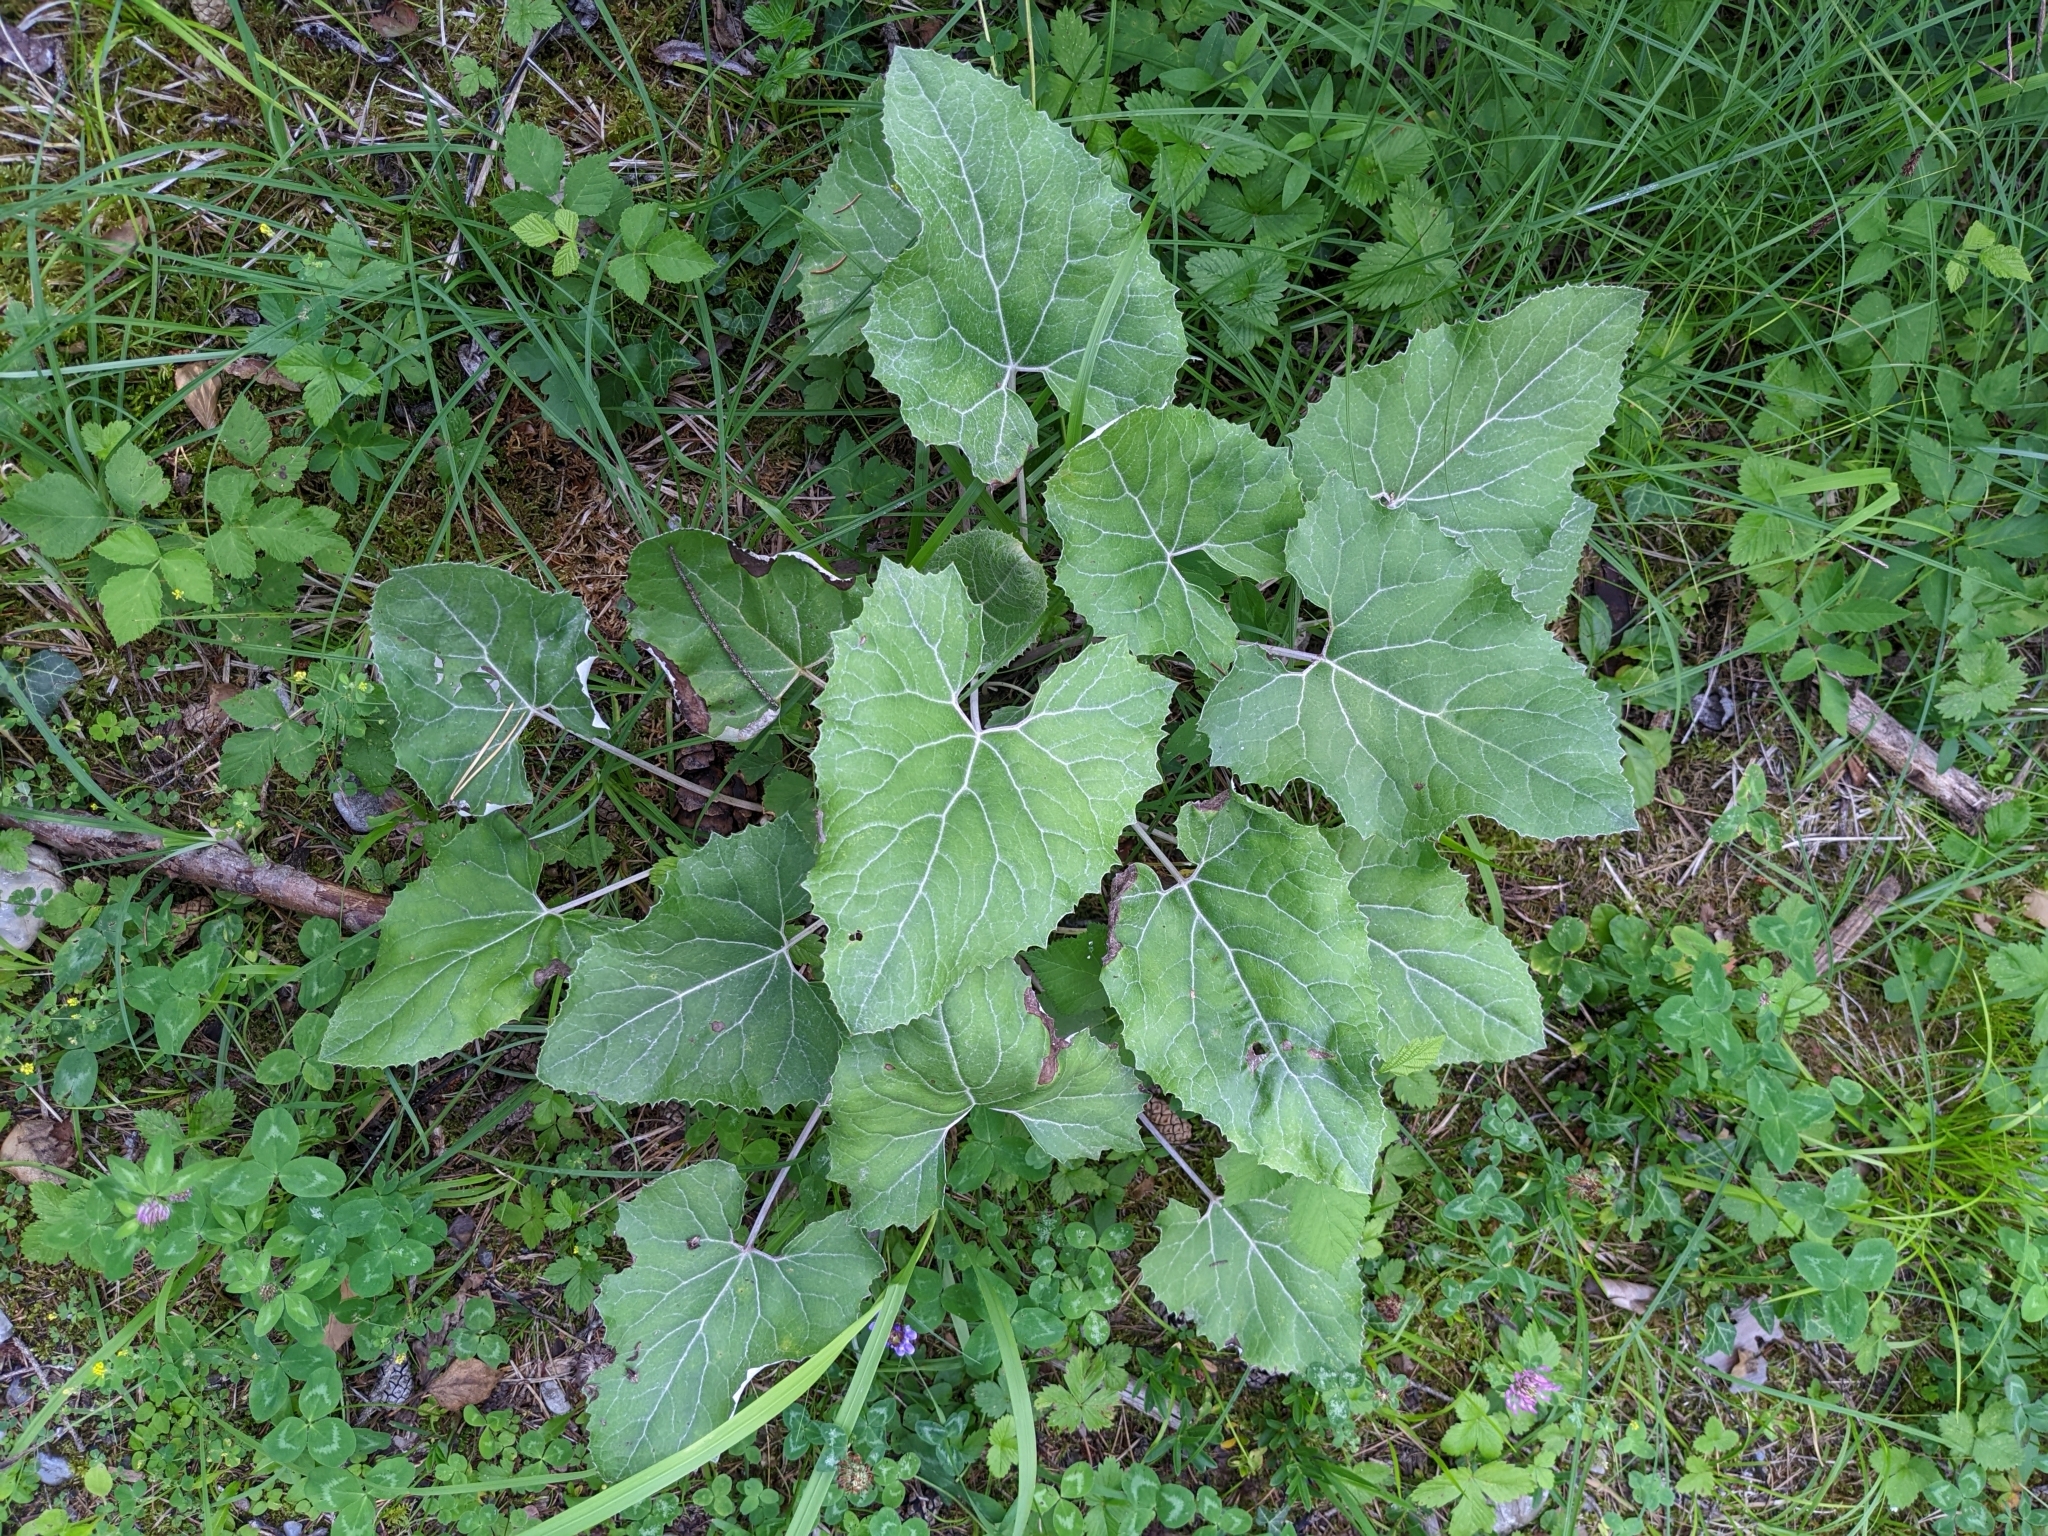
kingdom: Plantae
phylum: Tracheophyta
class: Magnoliopsida
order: Asterales
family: Asteraceae
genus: Petasites
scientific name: Petasites paradoxus
